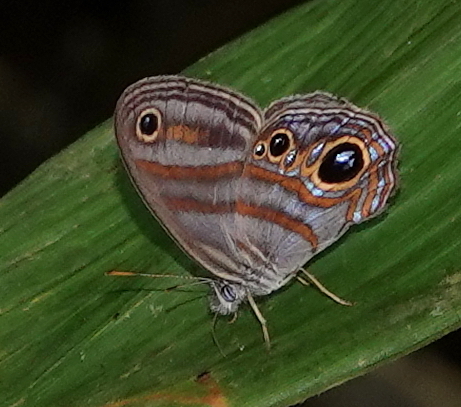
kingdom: Animalia
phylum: Arthropoda
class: Insecta
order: Lepidoptera
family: Nymphalidae
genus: Lazulina
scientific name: Lazulina
